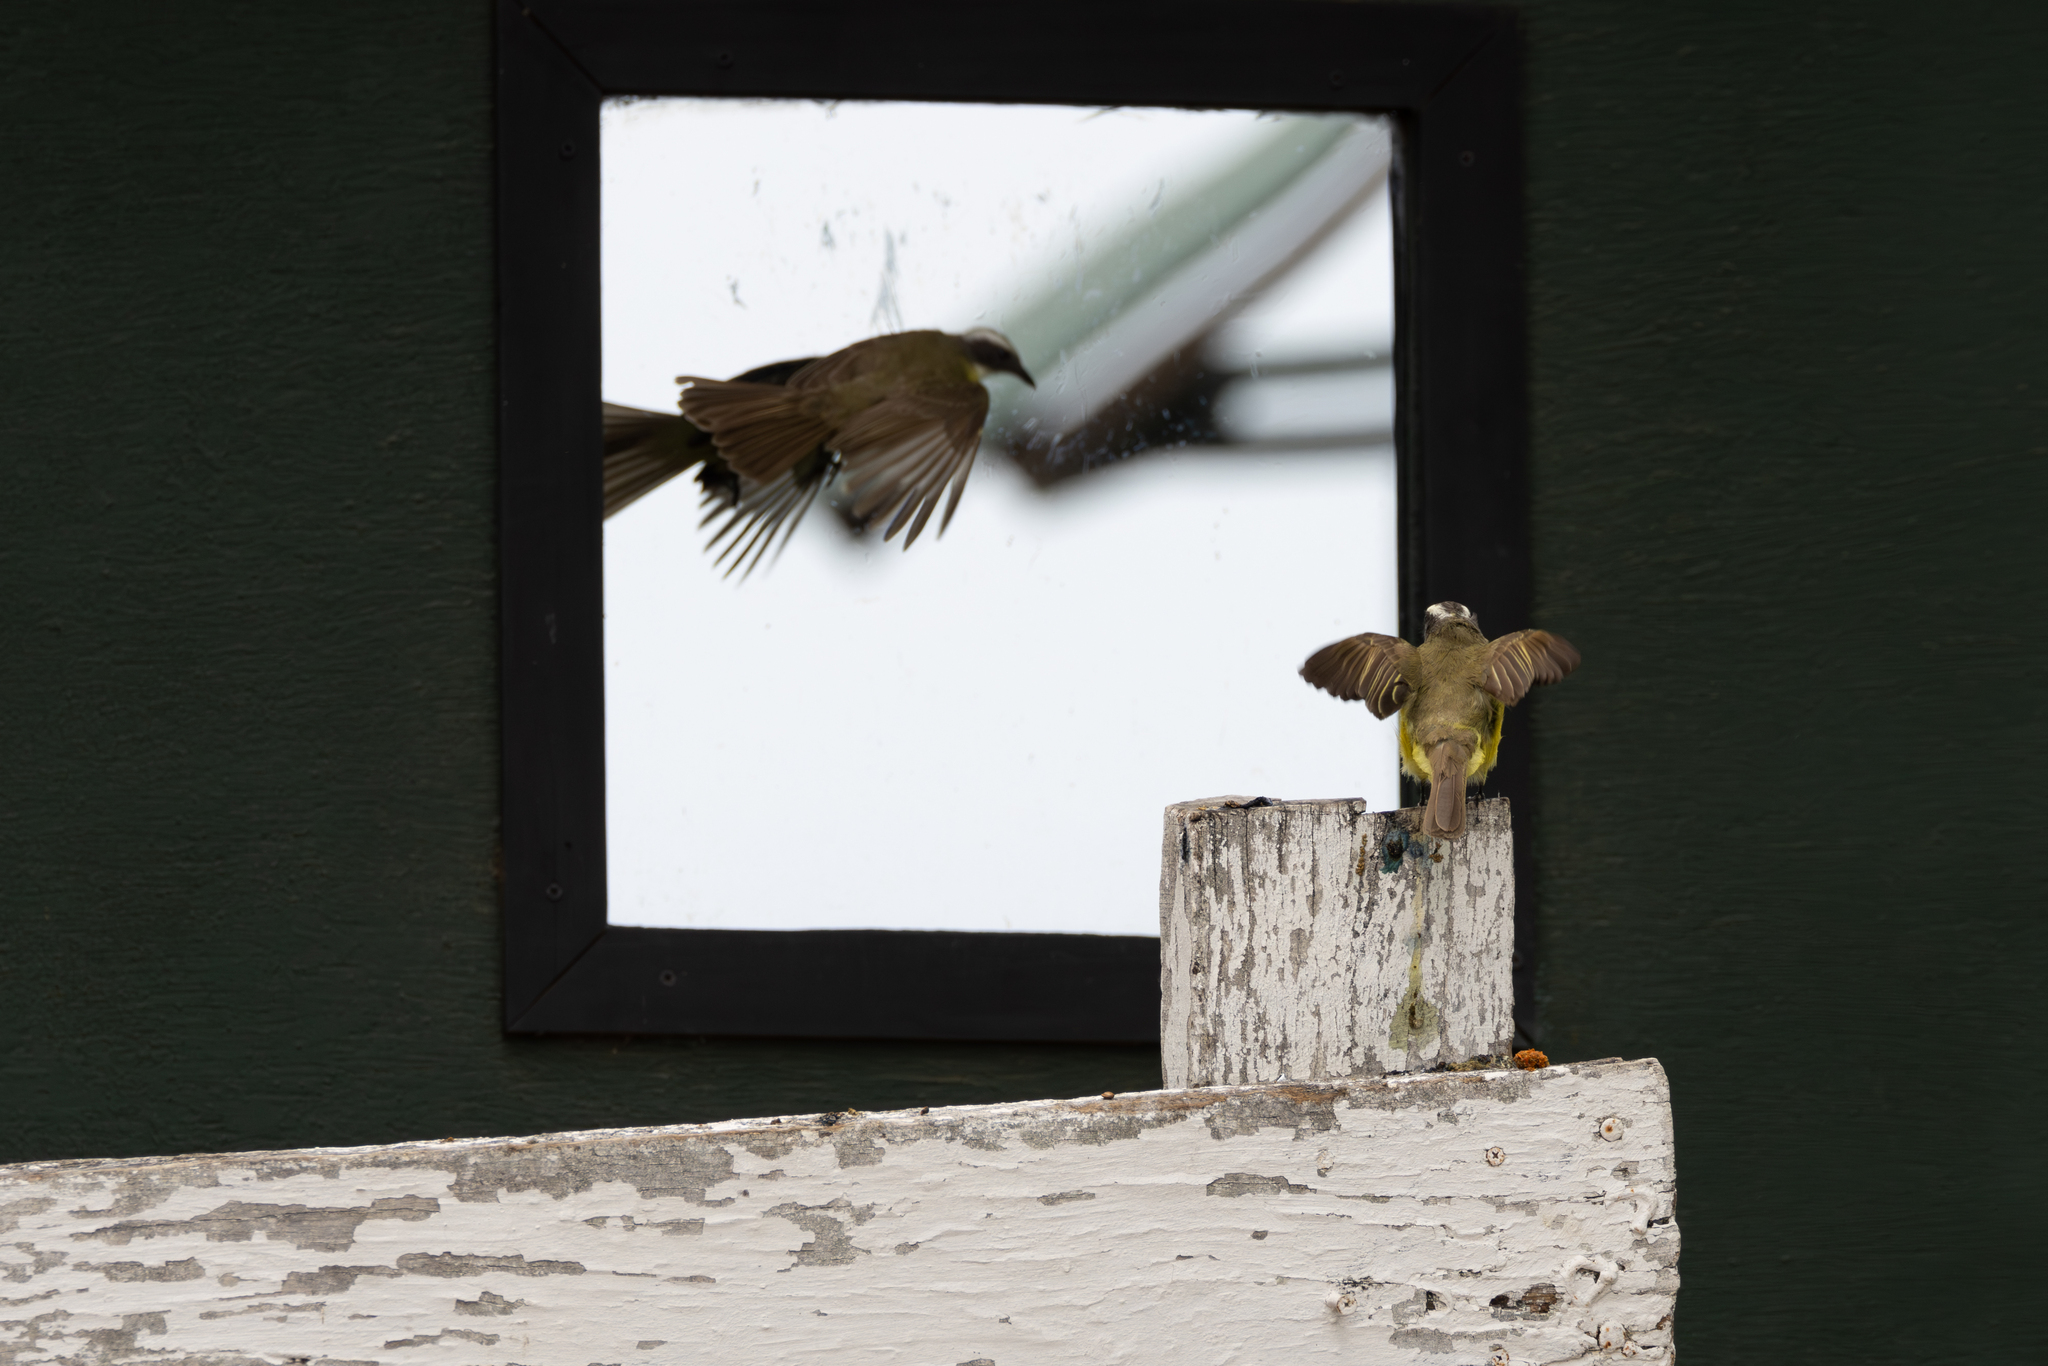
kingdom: Animalia
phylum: Chordata
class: Aves
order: Passeriformes
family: Tyrannidae
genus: Myiozetetes
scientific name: Myiozetetes similis
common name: Social flycatcher
